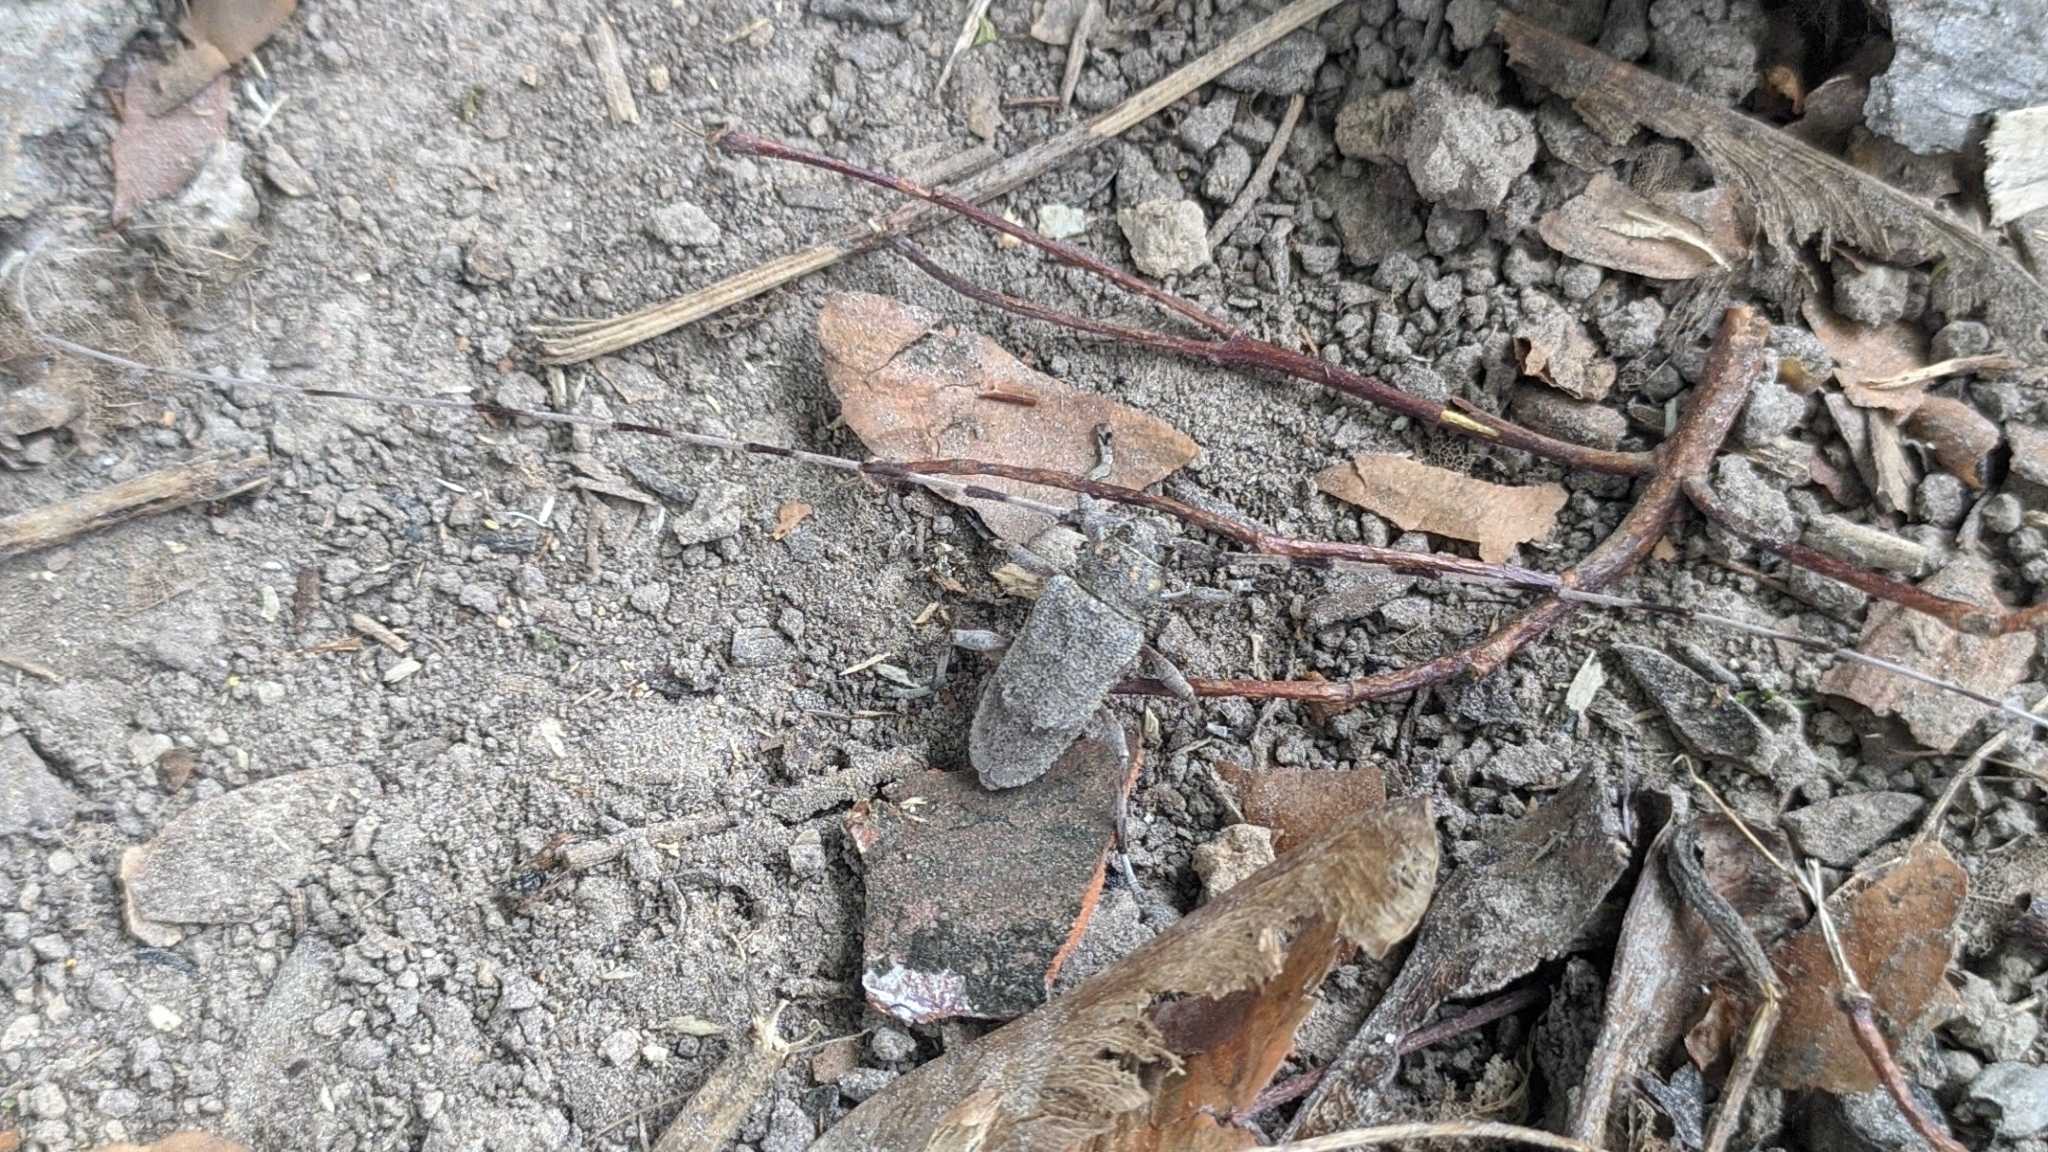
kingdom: Animalia
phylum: Arthropoda
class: Insecta
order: Coleoptera
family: Cerambycidae
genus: Acanthocinus
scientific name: Acanthocinus aedilis
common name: Timberman beetle
